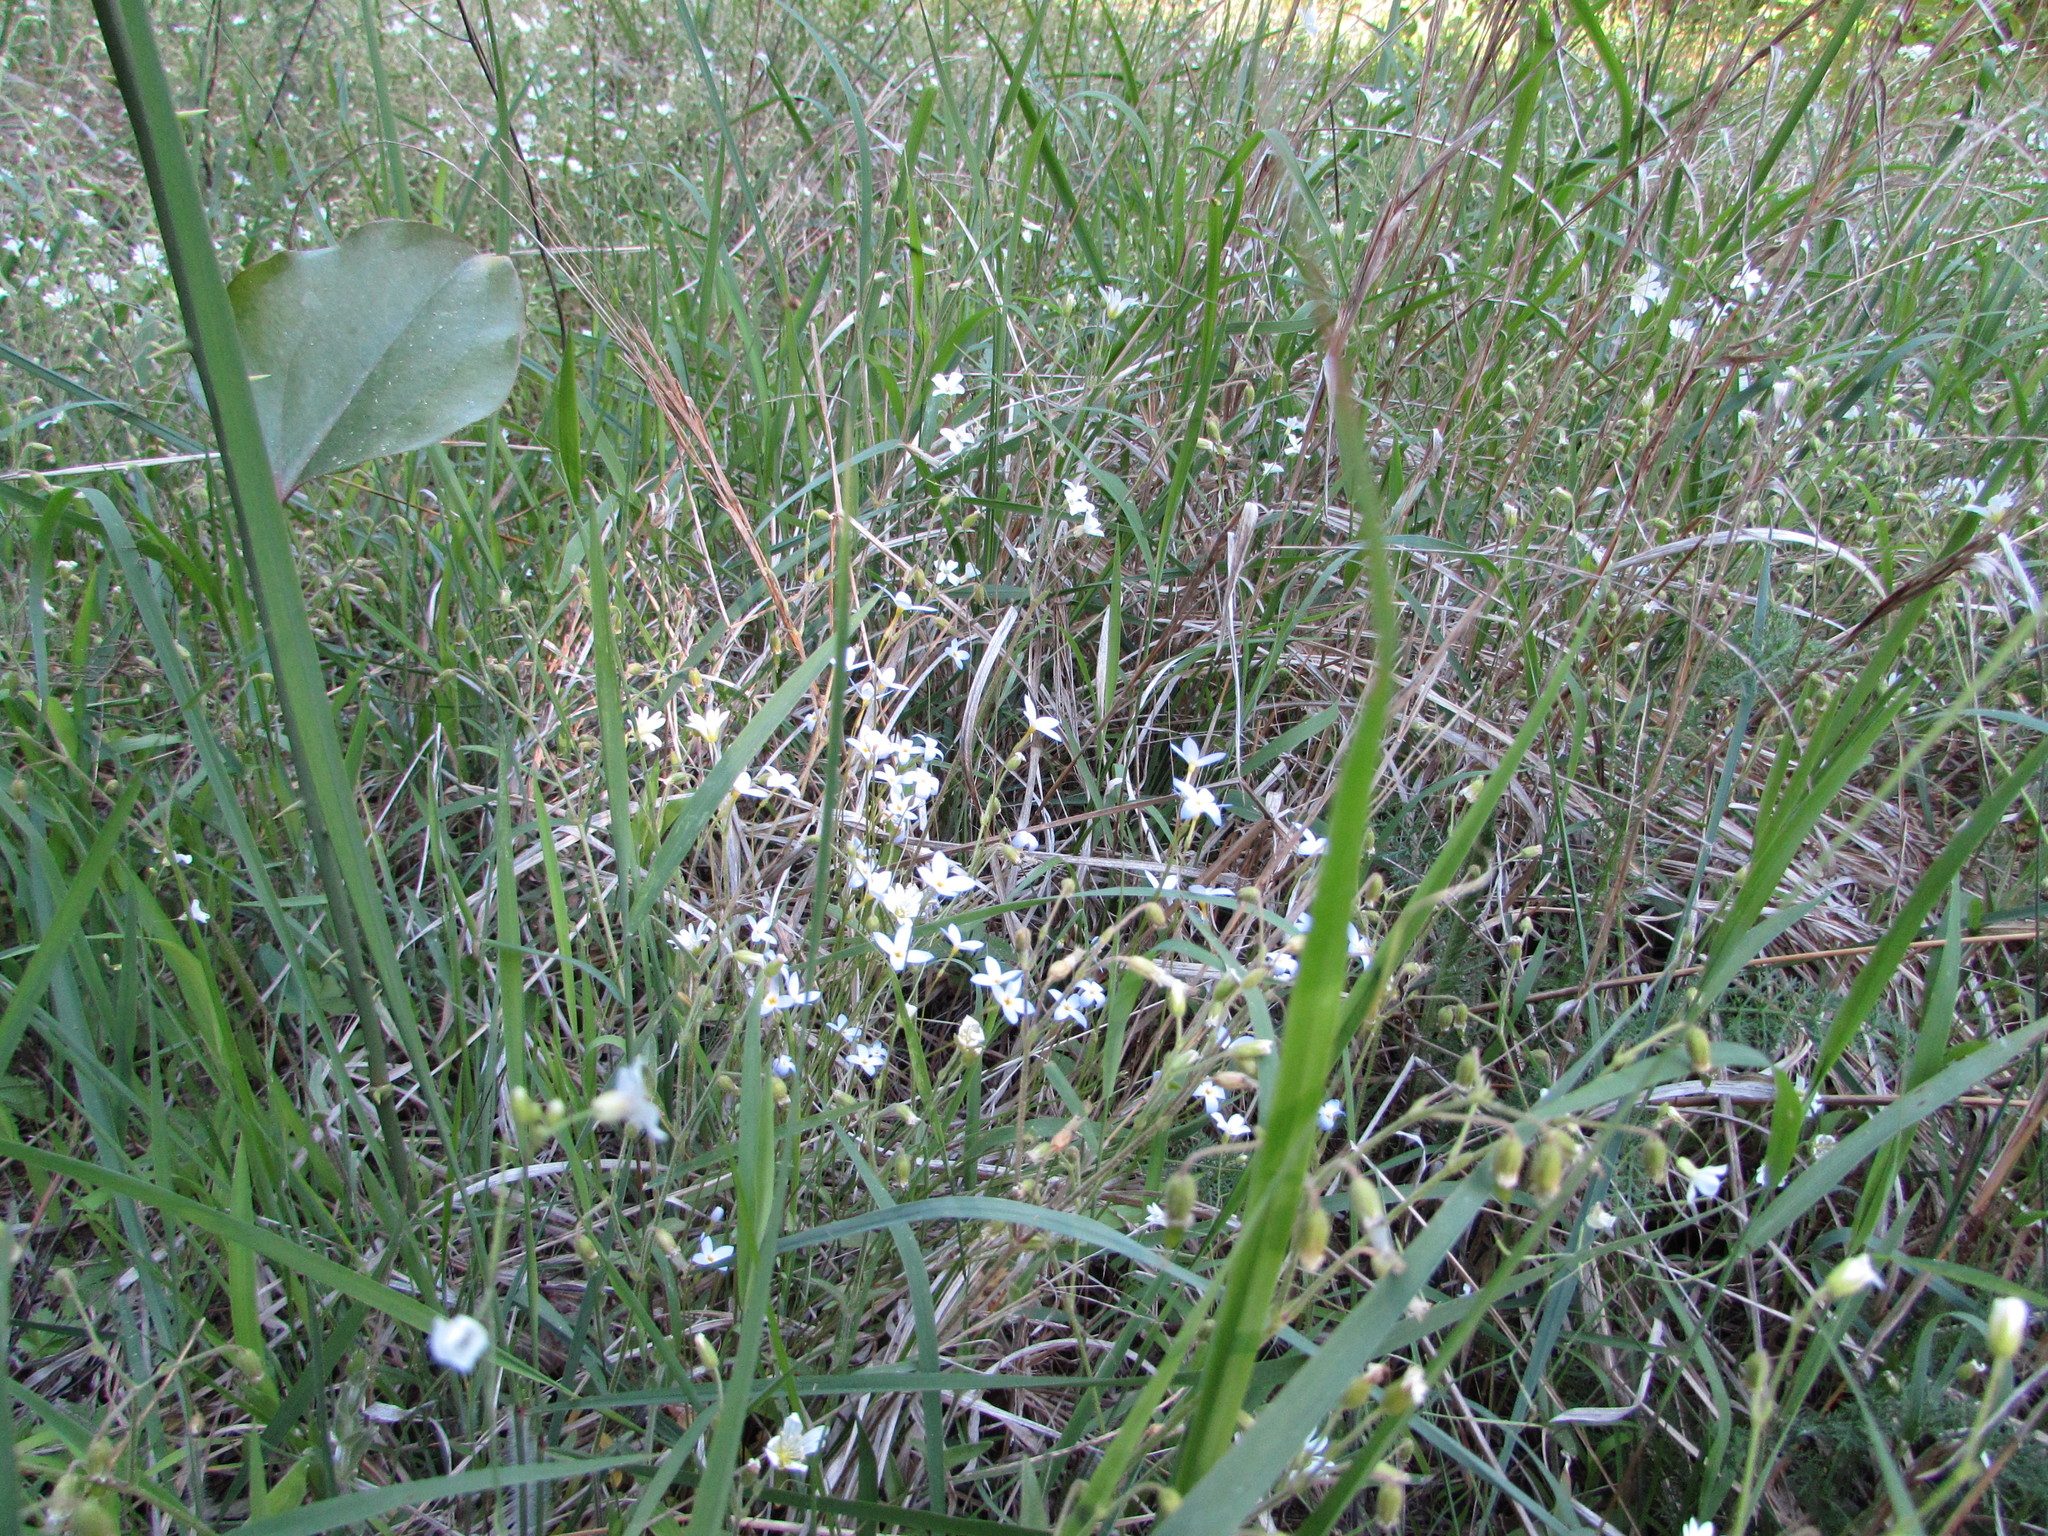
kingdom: Plantae
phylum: Tracheophyta
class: Magnoliopsida
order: Gentianales
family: Rubiaceae
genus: Houstonia
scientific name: Houstonia caerulea
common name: Bluets
